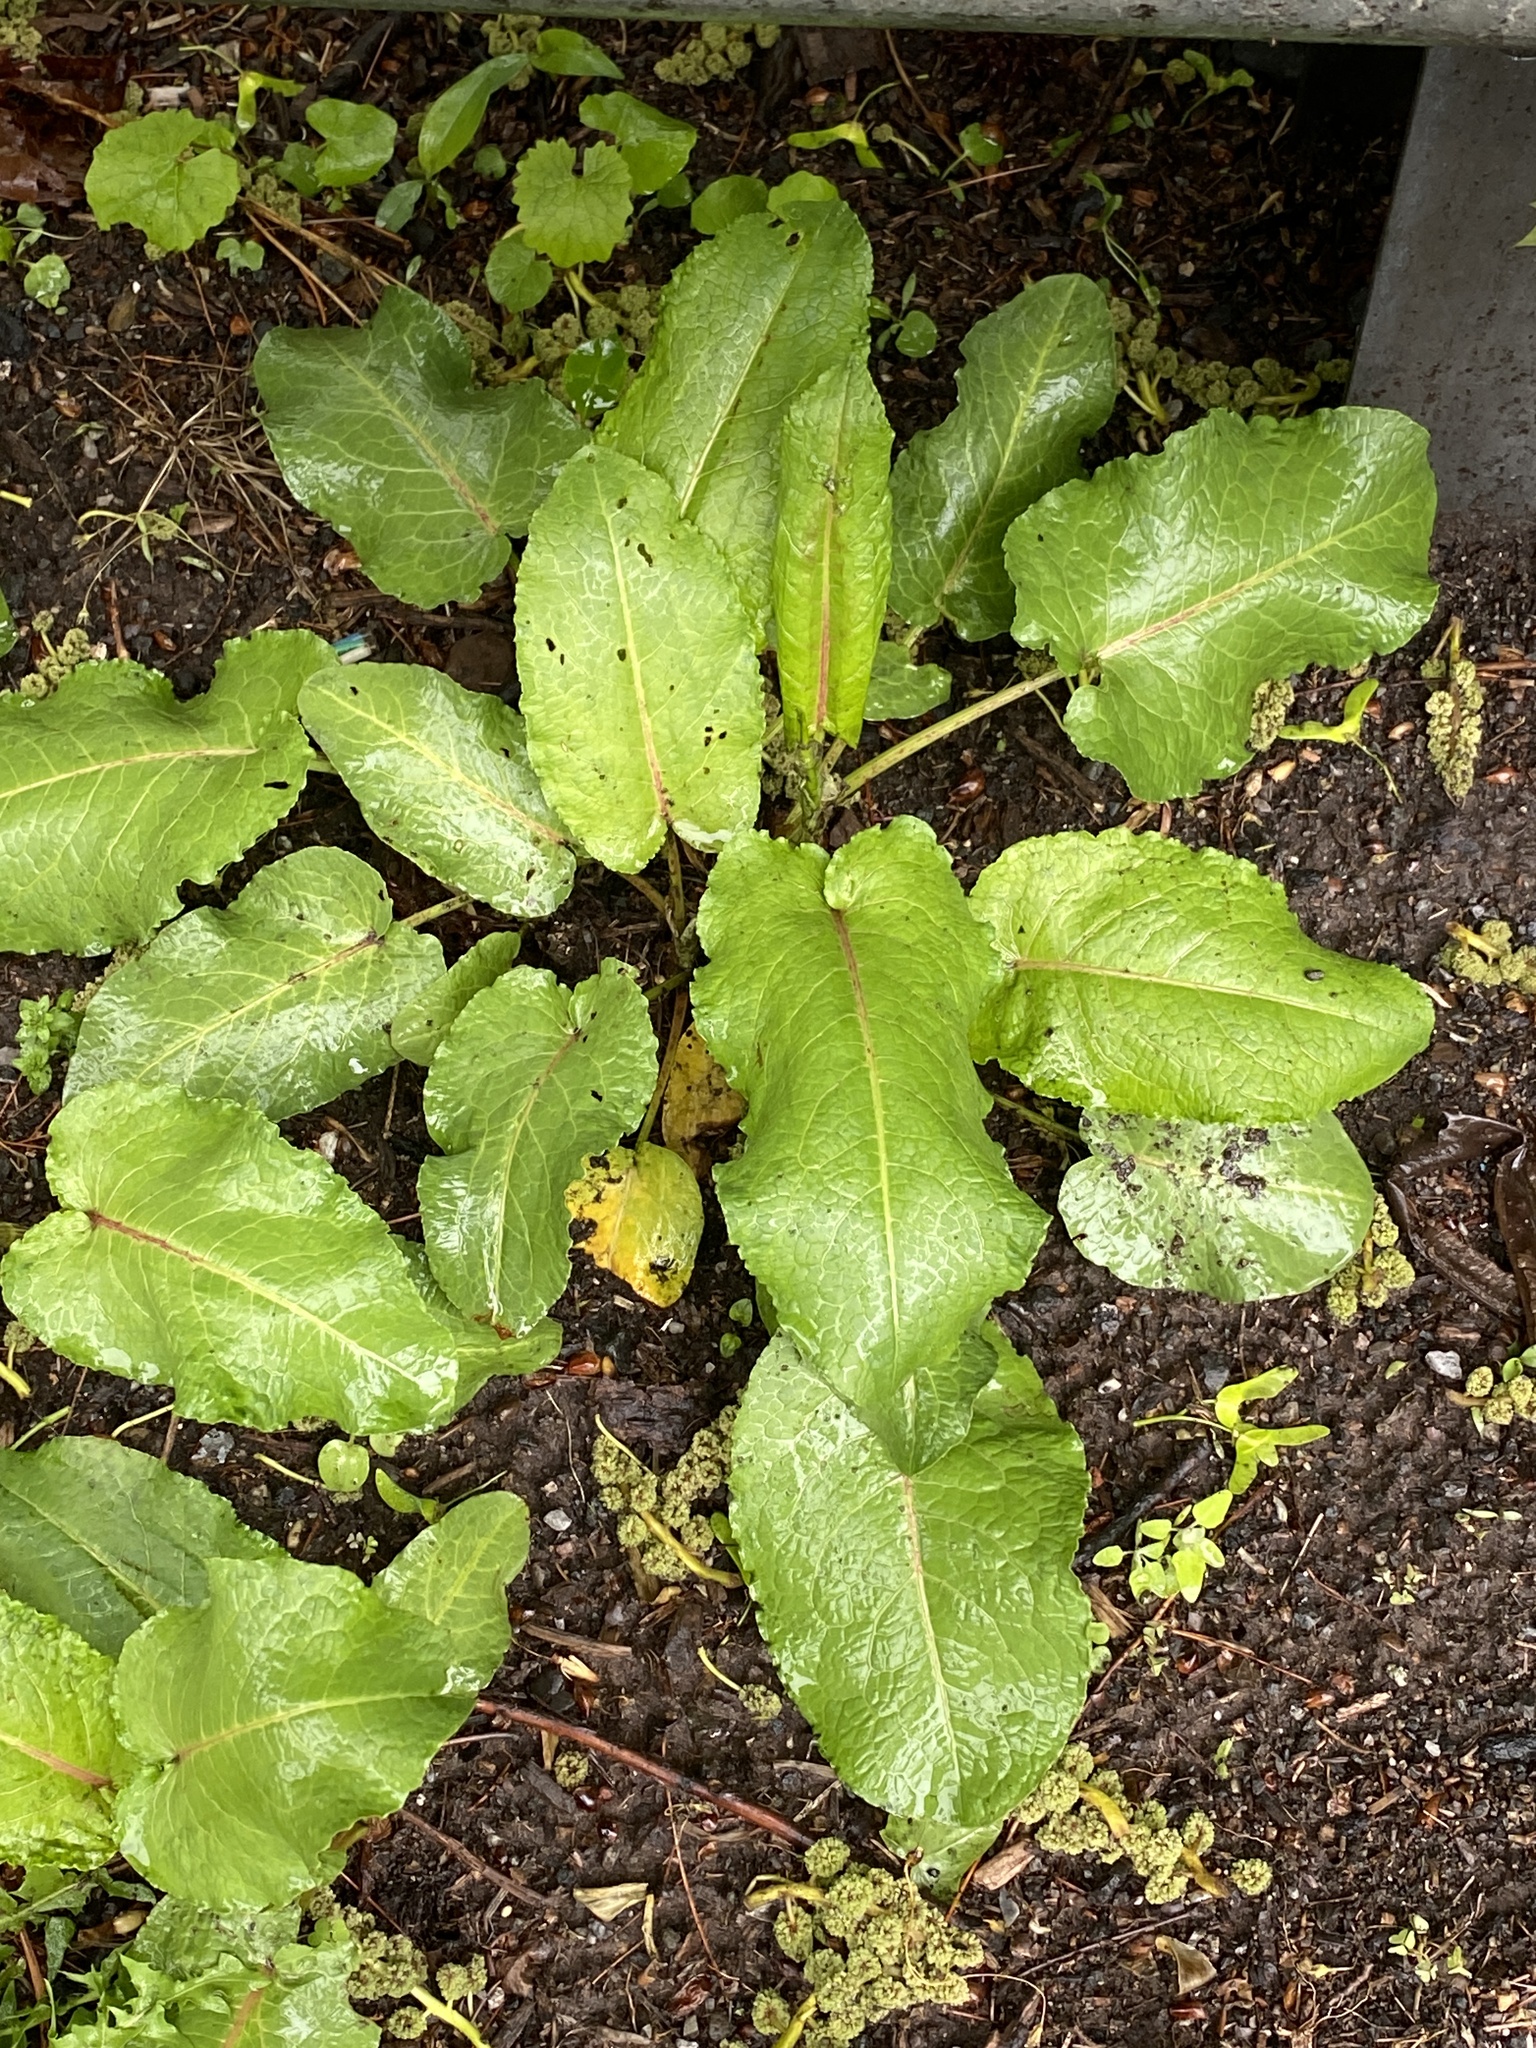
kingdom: Plantae
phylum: Tracheophyta
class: Magnoliopsida
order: Caryophyllales
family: Polygonaceae
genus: Rumex
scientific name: Rumex obtusifolius
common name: Bitter dock
